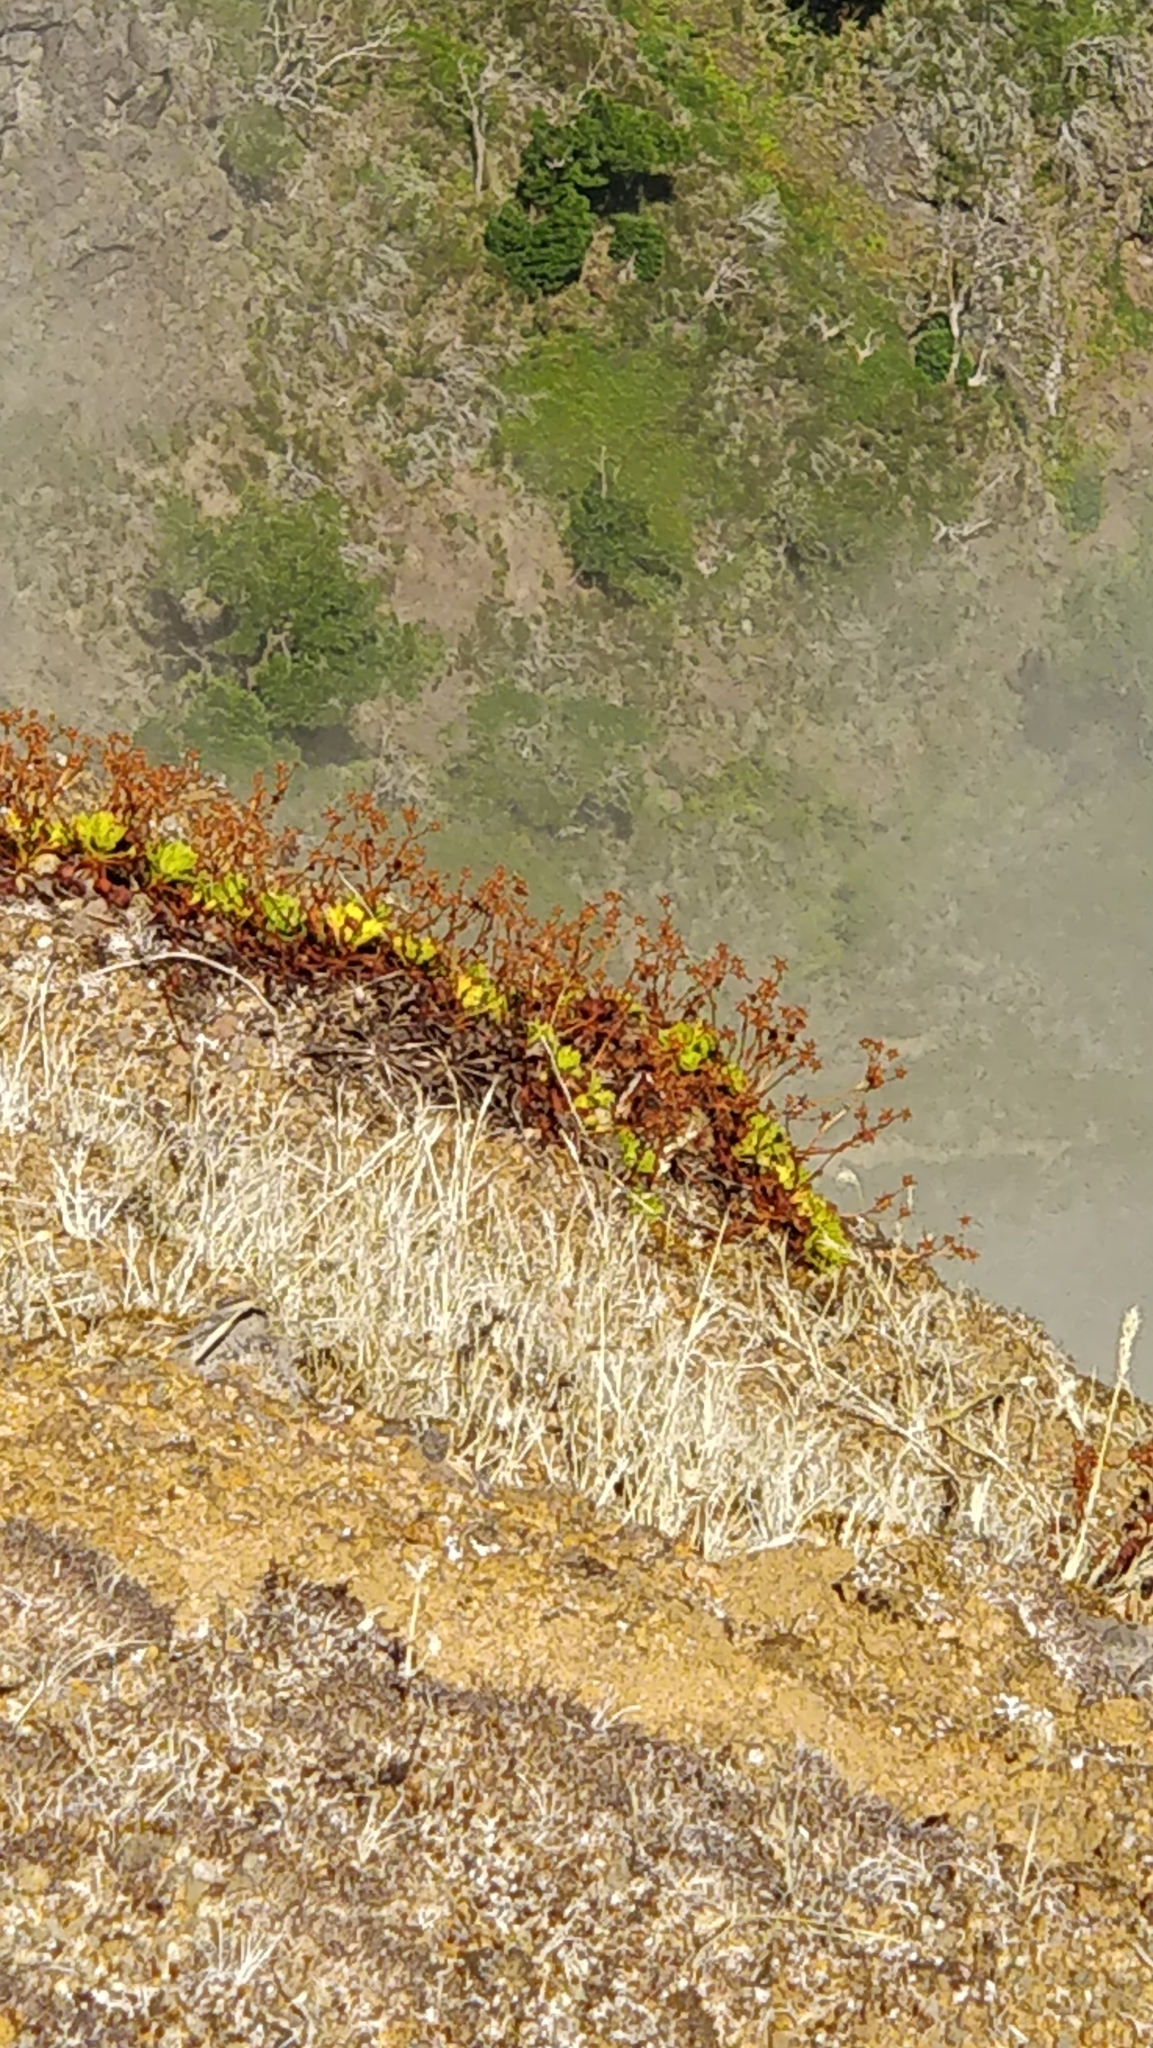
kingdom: Plantae
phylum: Tracheophyta
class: Magnoliopsida
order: Saxifragales
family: Saxifragaceae
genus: Saxifraga
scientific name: Saxifraga maderensis
